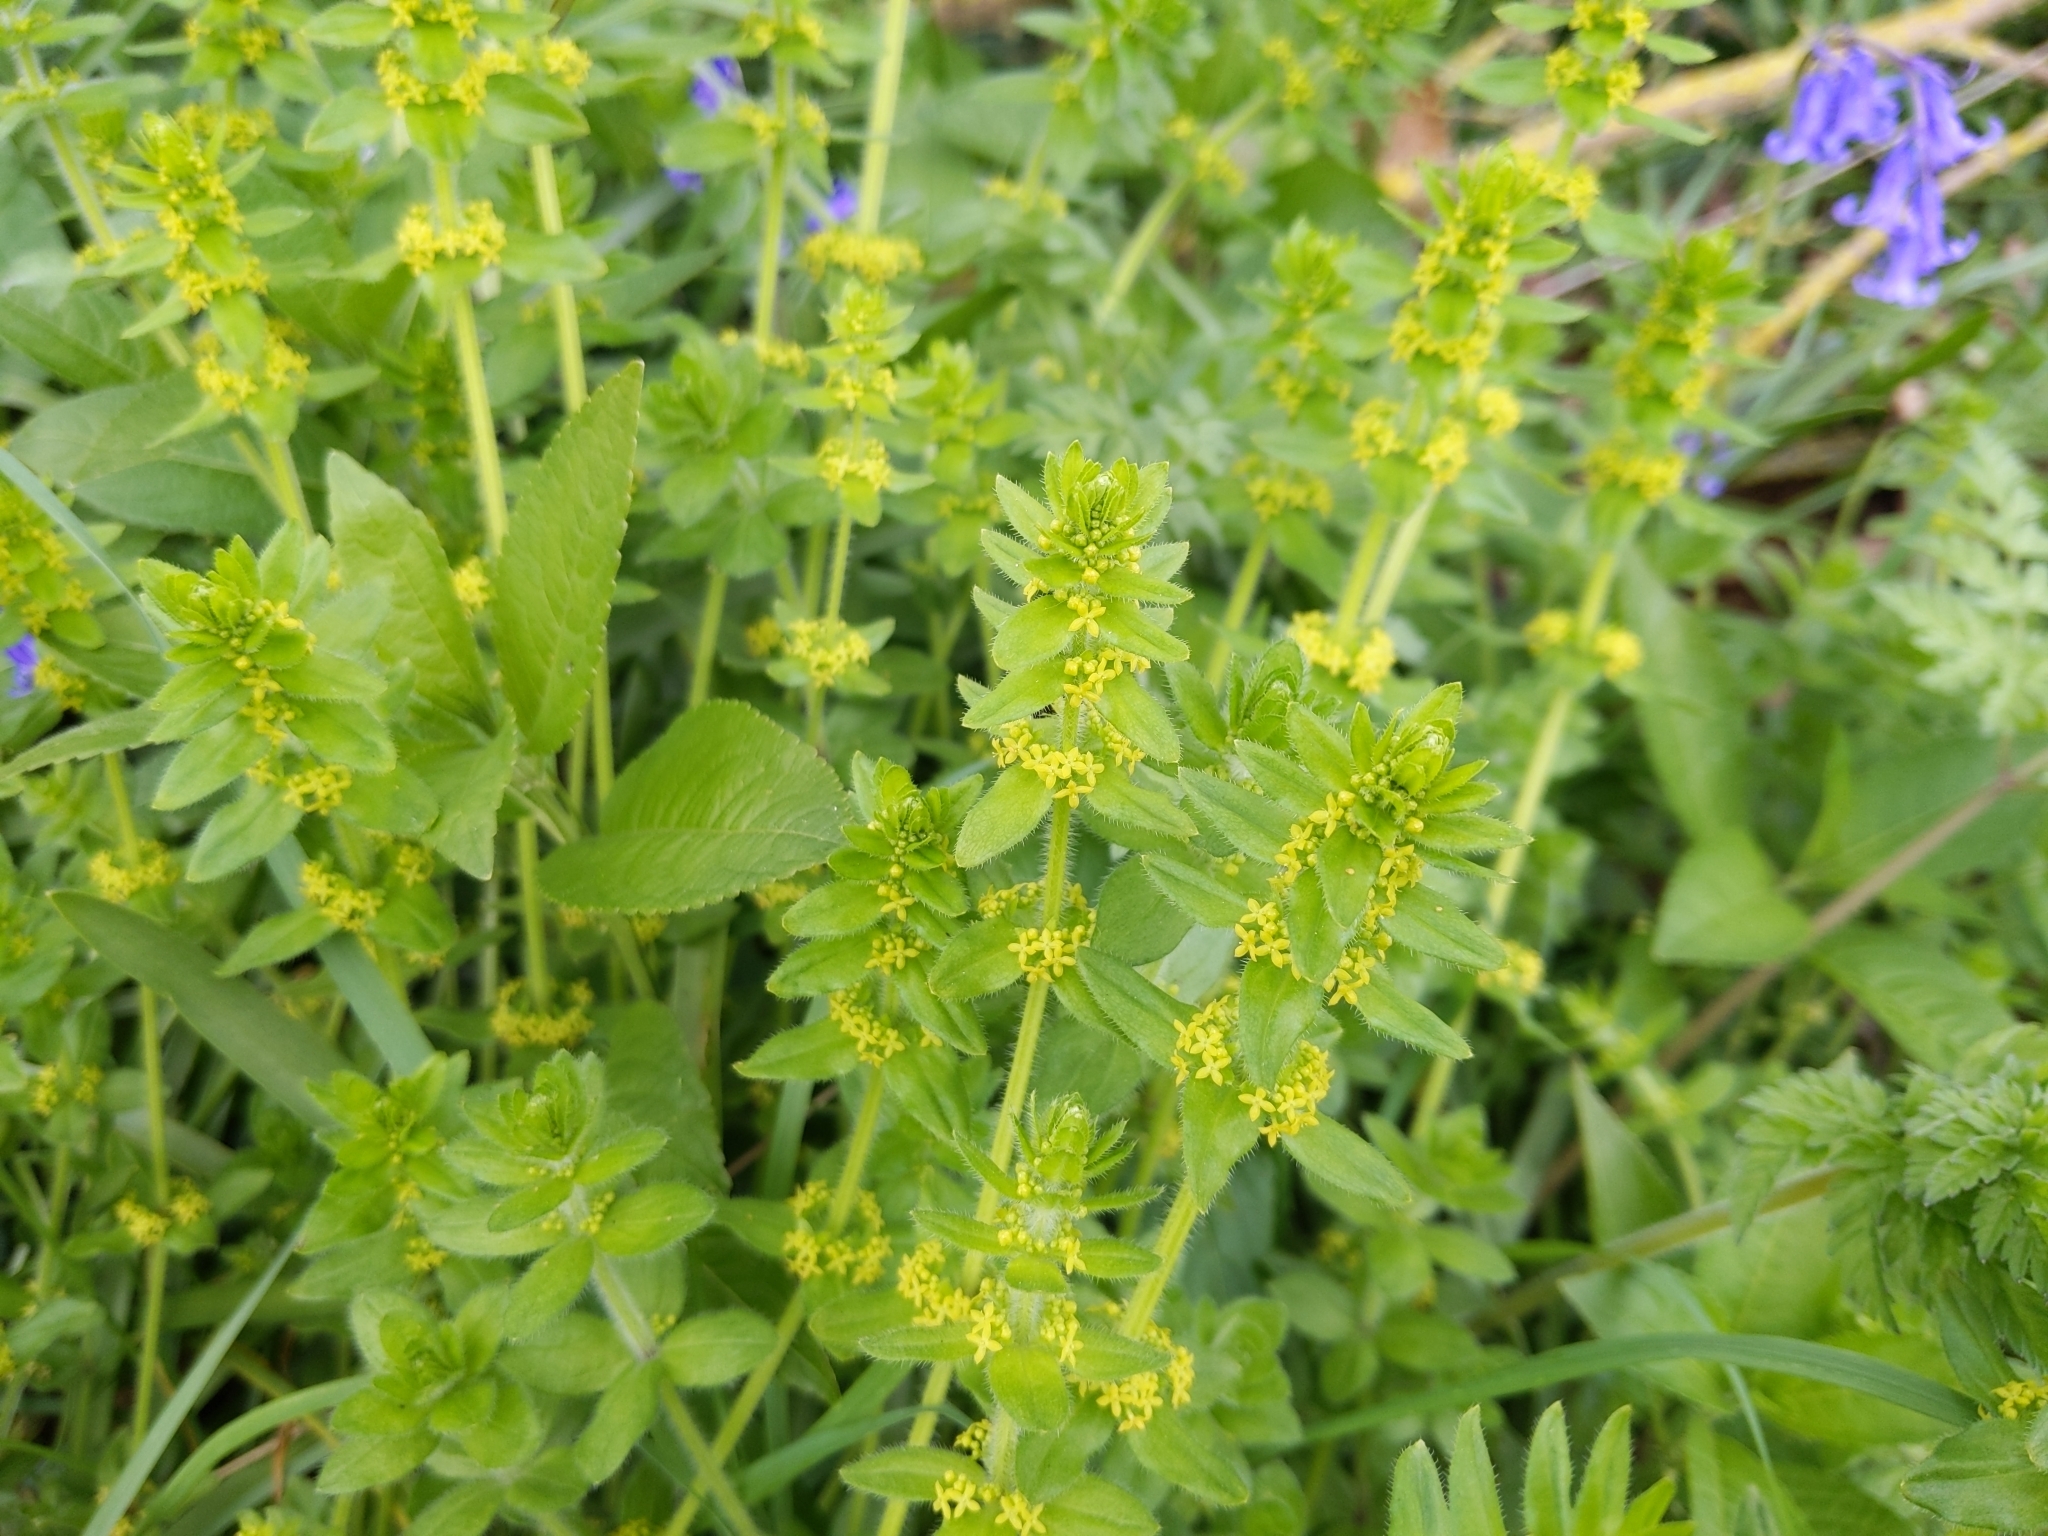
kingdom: Plantae
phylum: Tracheophyta
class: Magnoliopsida
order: Gentianales
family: Rubiaceae
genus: Cruciata
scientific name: Cruciata laevipes
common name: Crosswort
